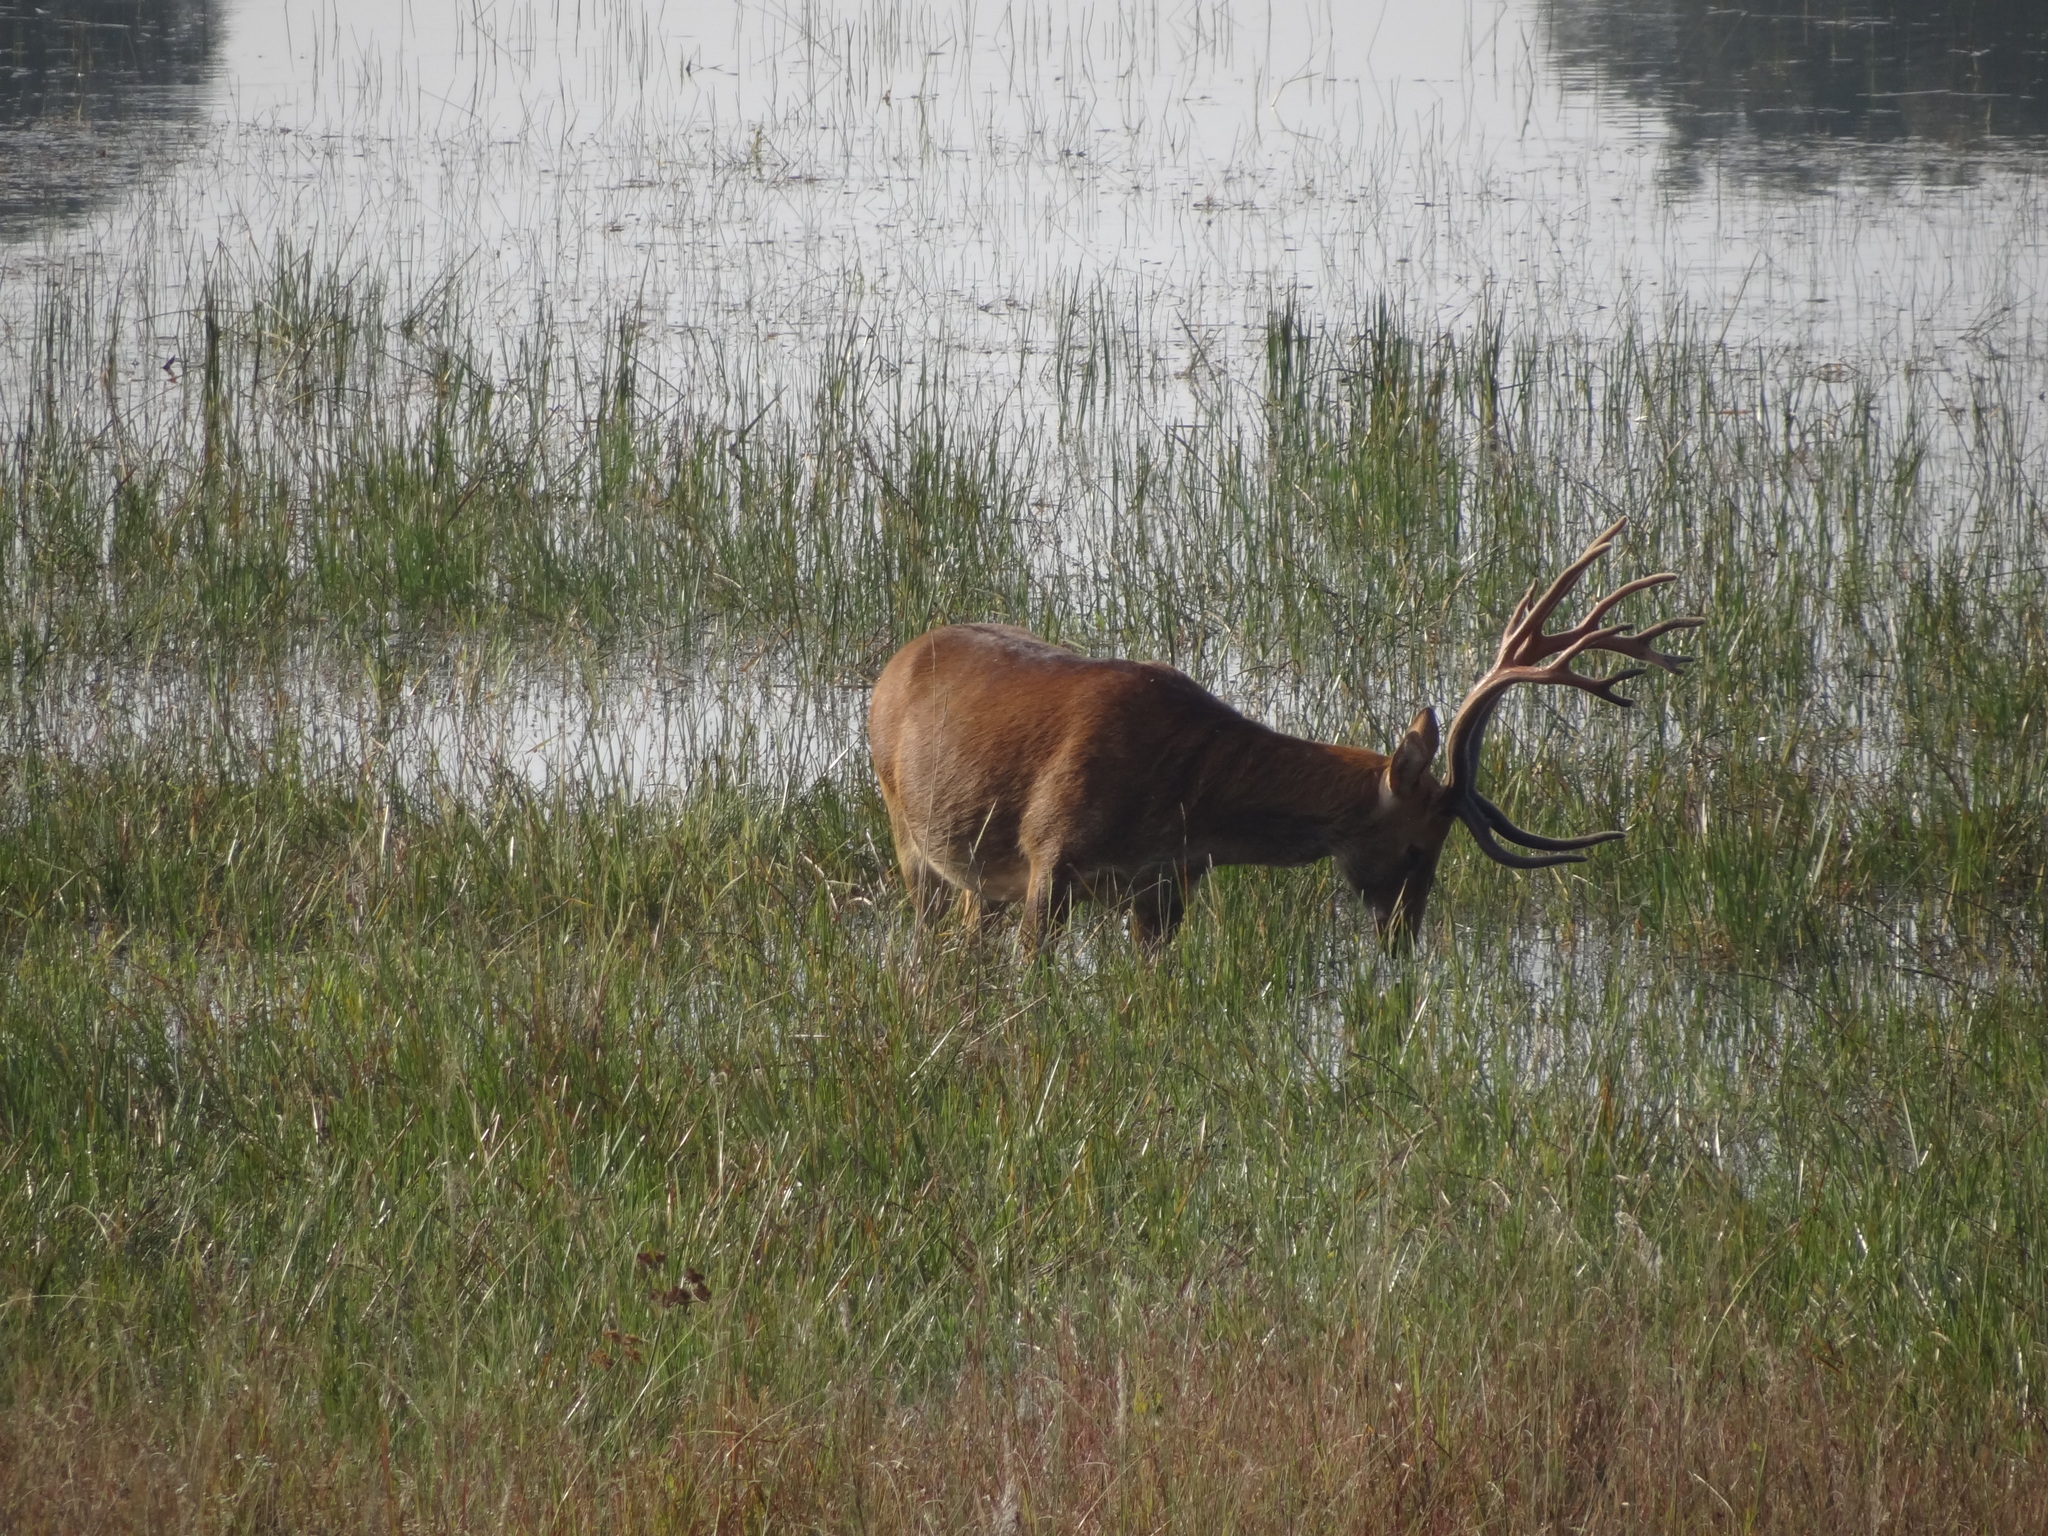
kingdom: Animalia
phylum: Chordata
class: Mammalia
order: Artiodactyla
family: Cervidae
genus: Rucervus
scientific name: Rucervus duvaucelii
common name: Barasingha
